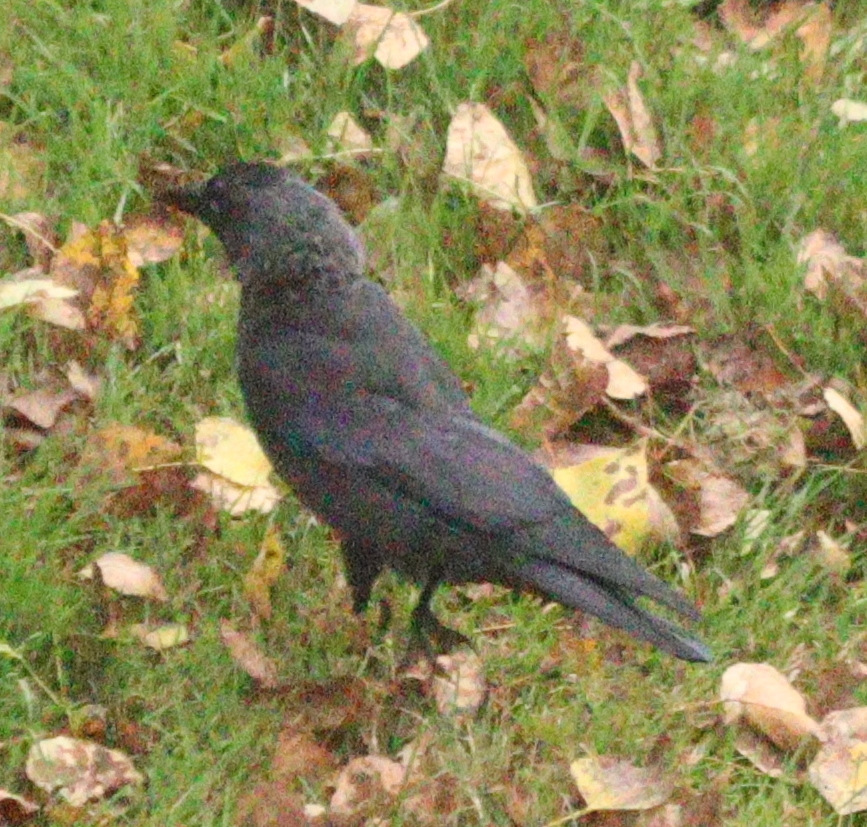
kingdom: Animalia
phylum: Chordata
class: Aves
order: Passeriformes
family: Corvidae
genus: Coloeus
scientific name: Coloeus monedula
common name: Western jackdaw
